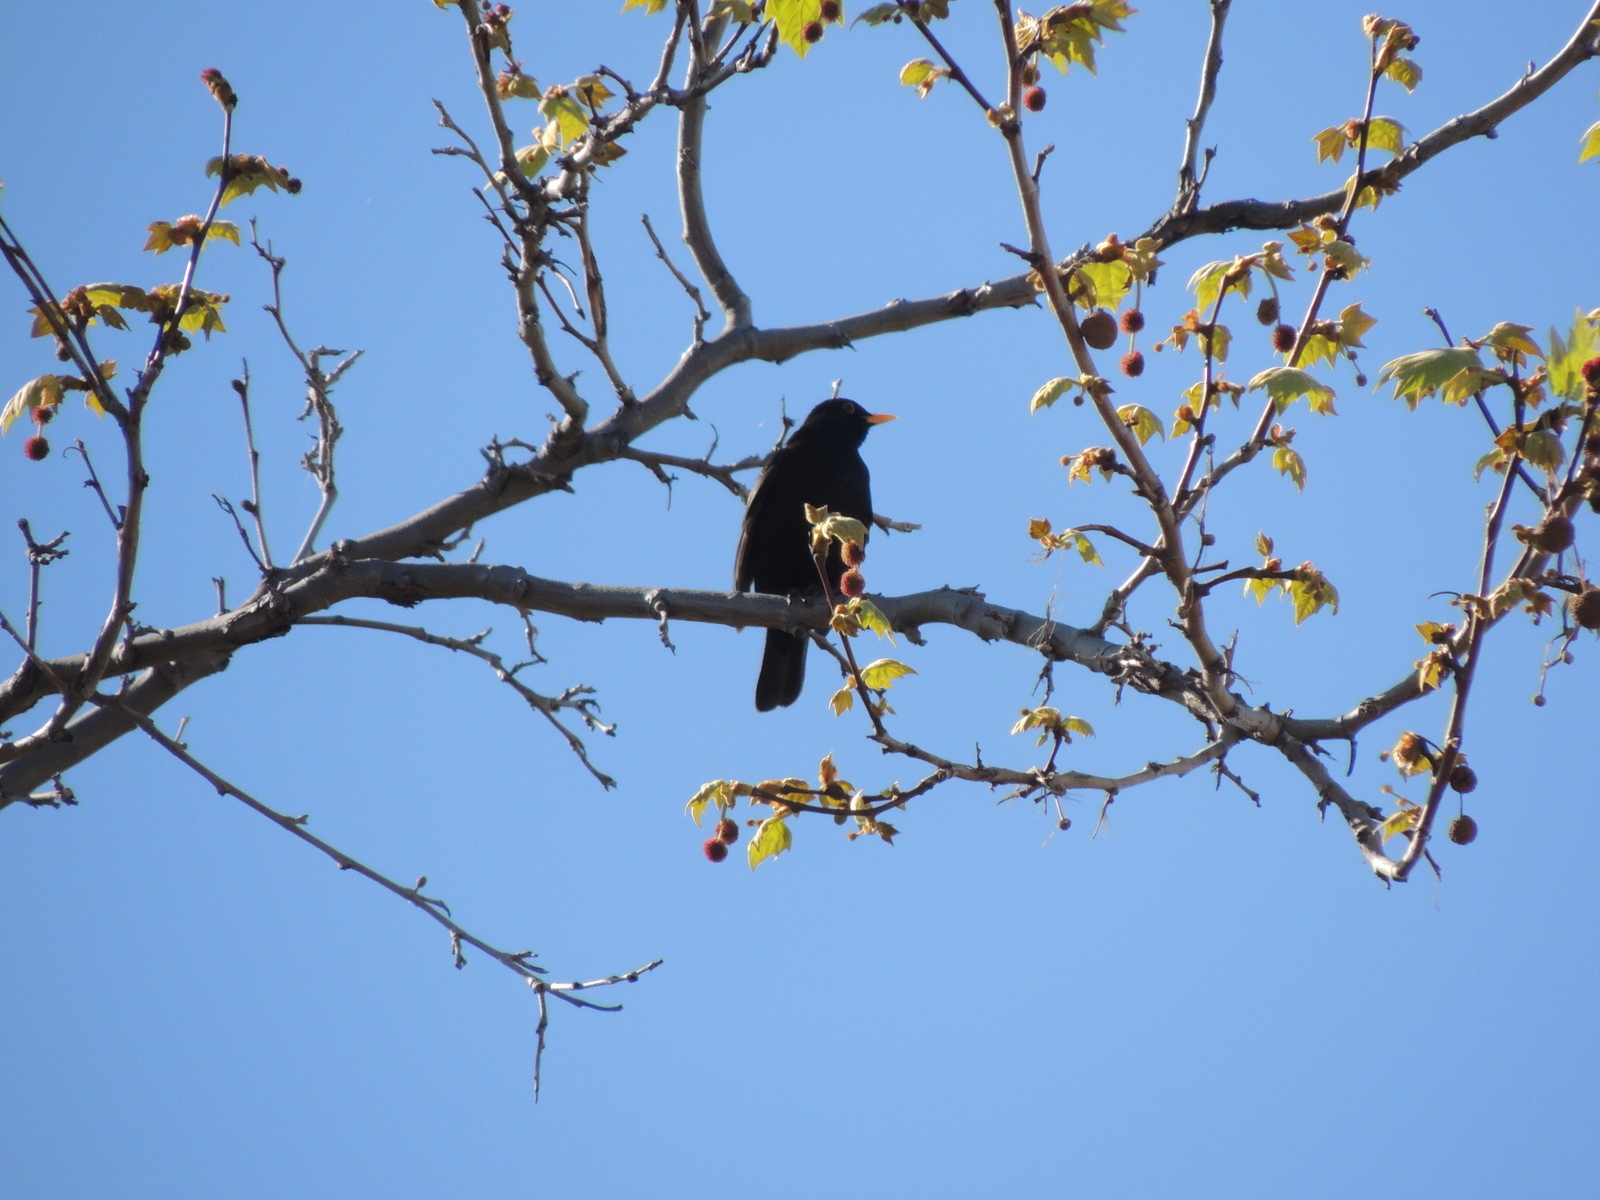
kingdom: Animalia
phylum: Chordata
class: Aves
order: Passeriformes
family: Turdidae
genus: Turdus
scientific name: Turdus merula
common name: Common blackbird
